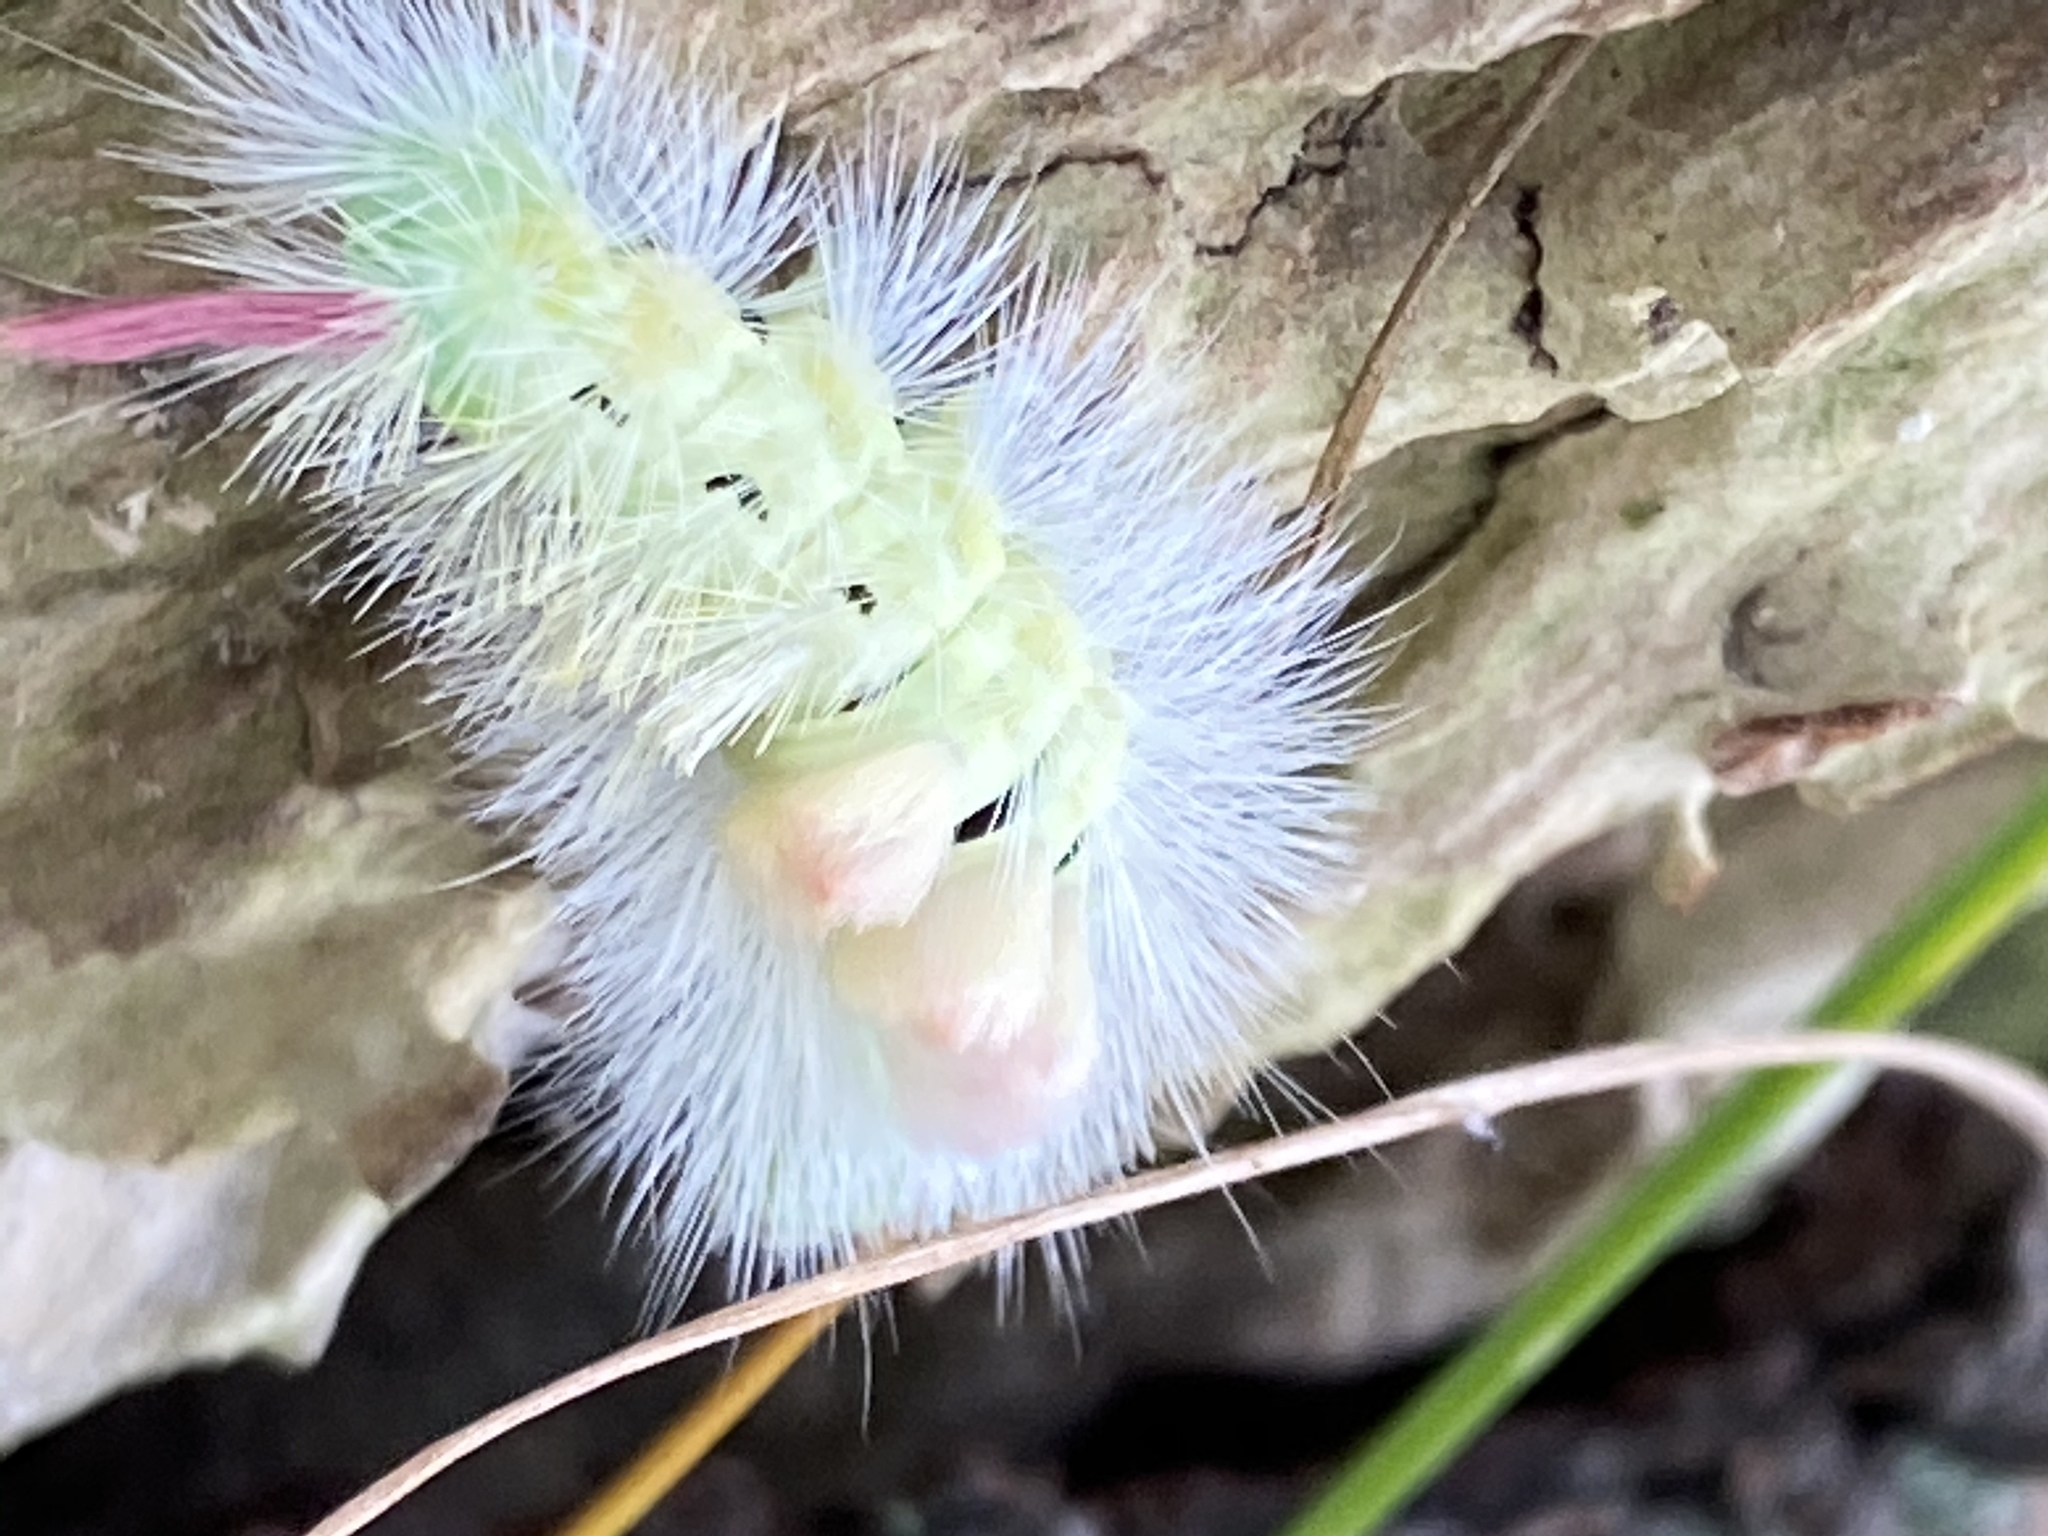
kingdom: Animalia
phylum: Arthropoda
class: Insecta
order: Lepidoptera
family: Erebidae
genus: Calliteara
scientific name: Calliteara pudibunda
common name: Pale tussock
